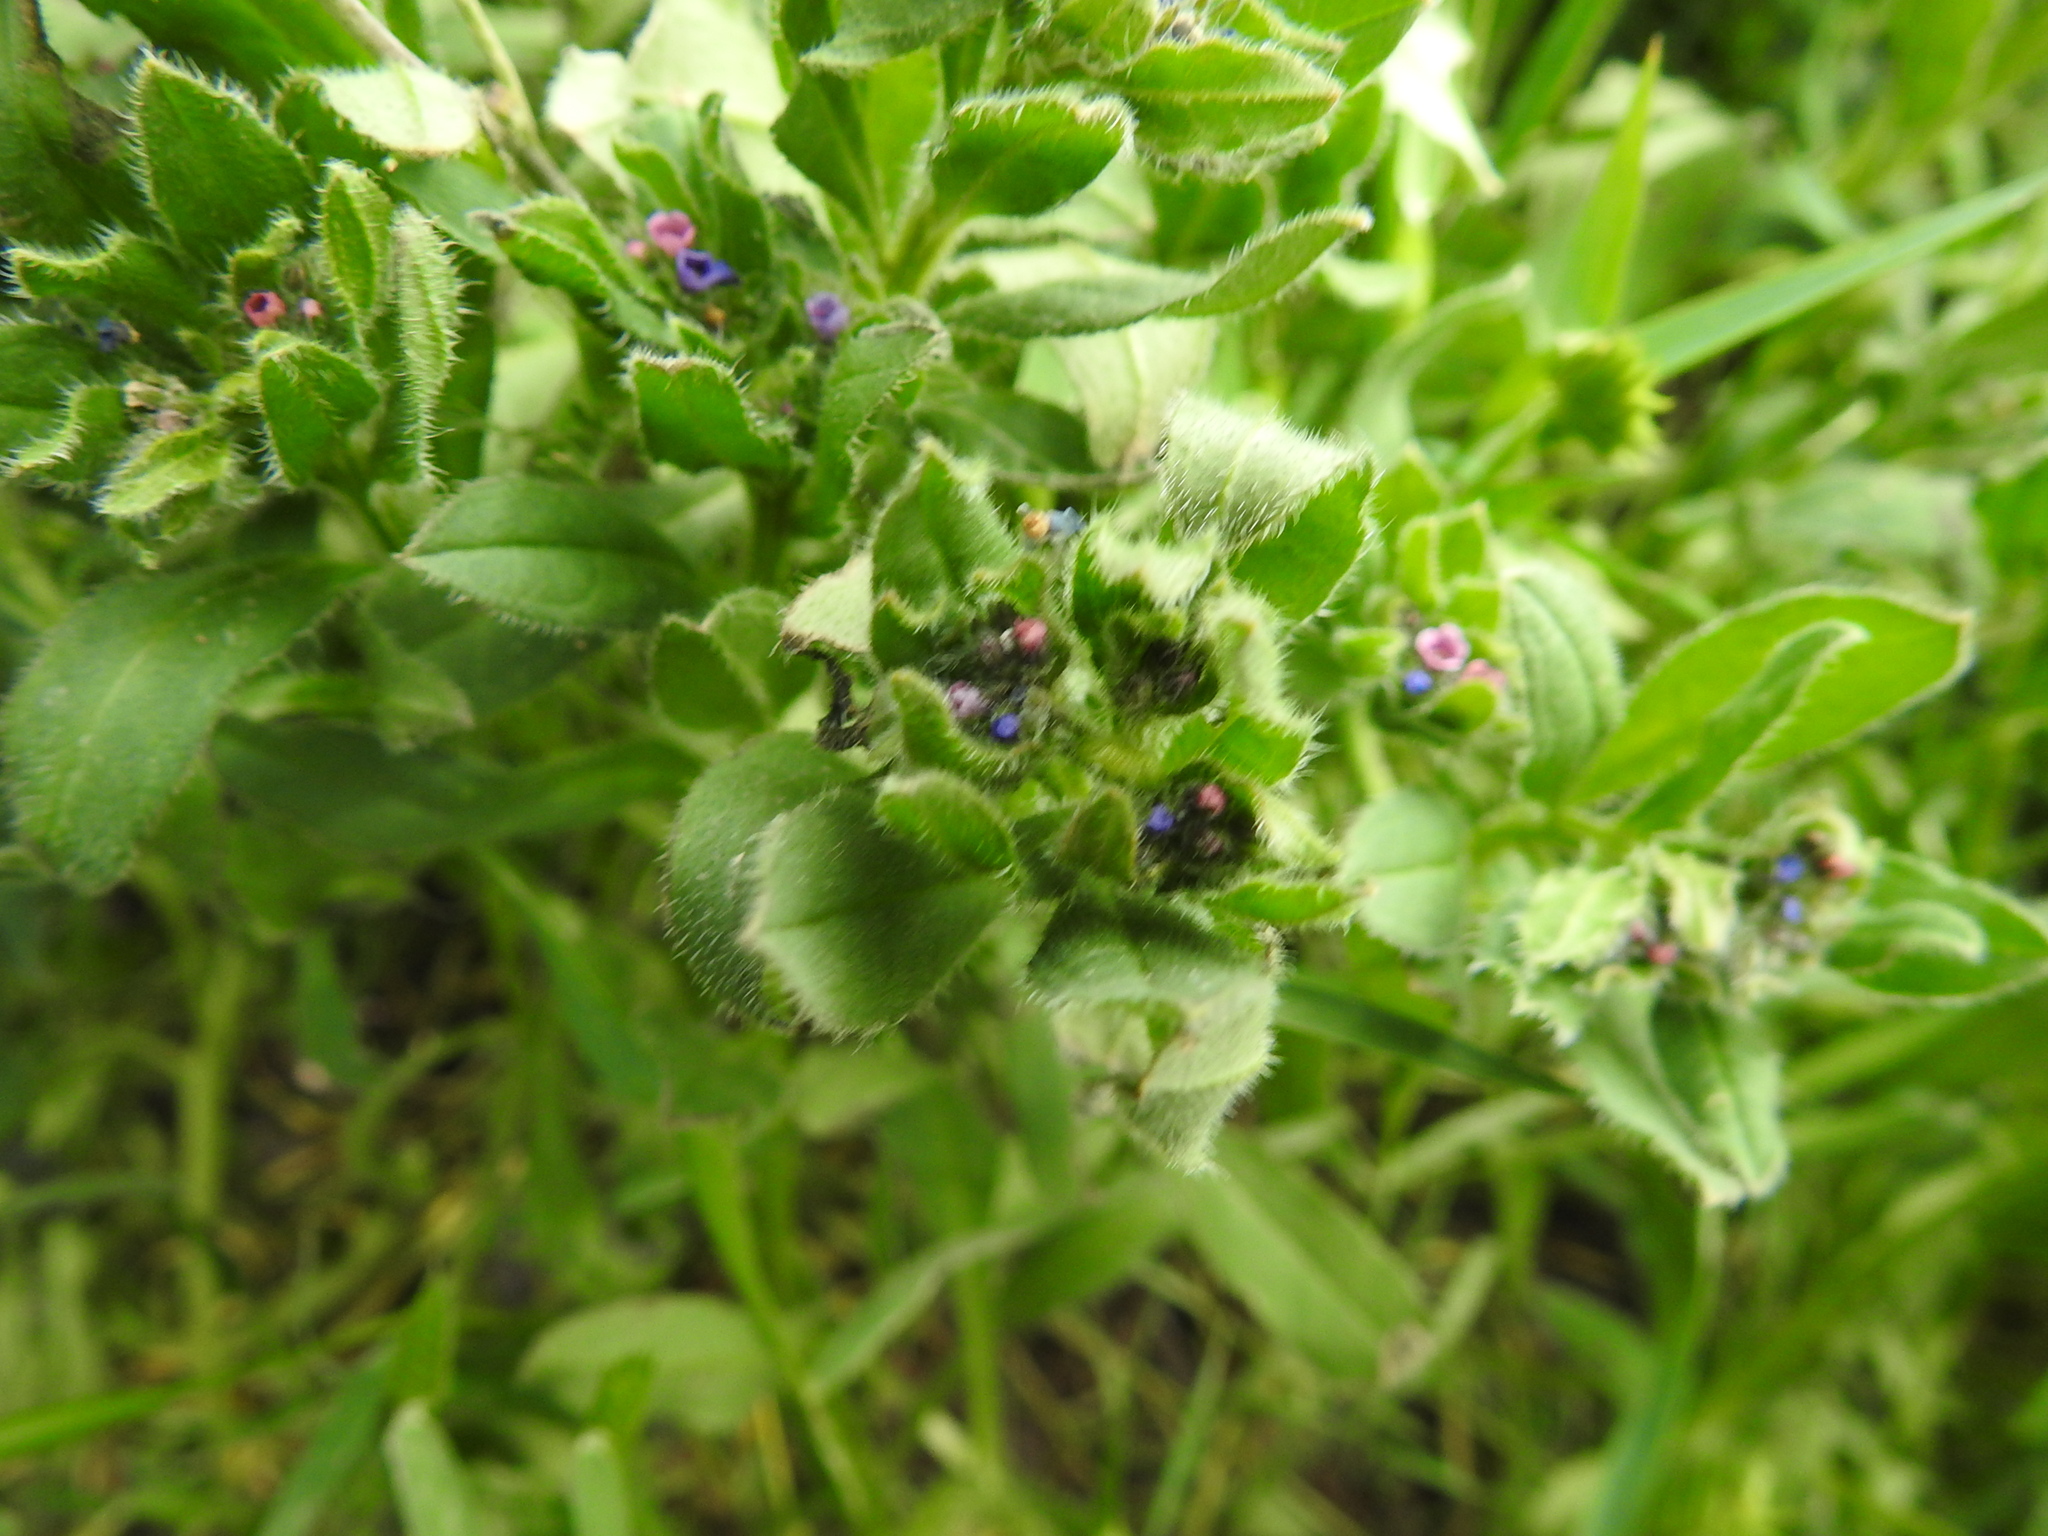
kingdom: Plantae
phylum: Tracheophyta
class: Magnoliopsida
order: Boraginales
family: Boraginaceae
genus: Asperugo
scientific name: Asperugo procumbens
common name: Madwort
